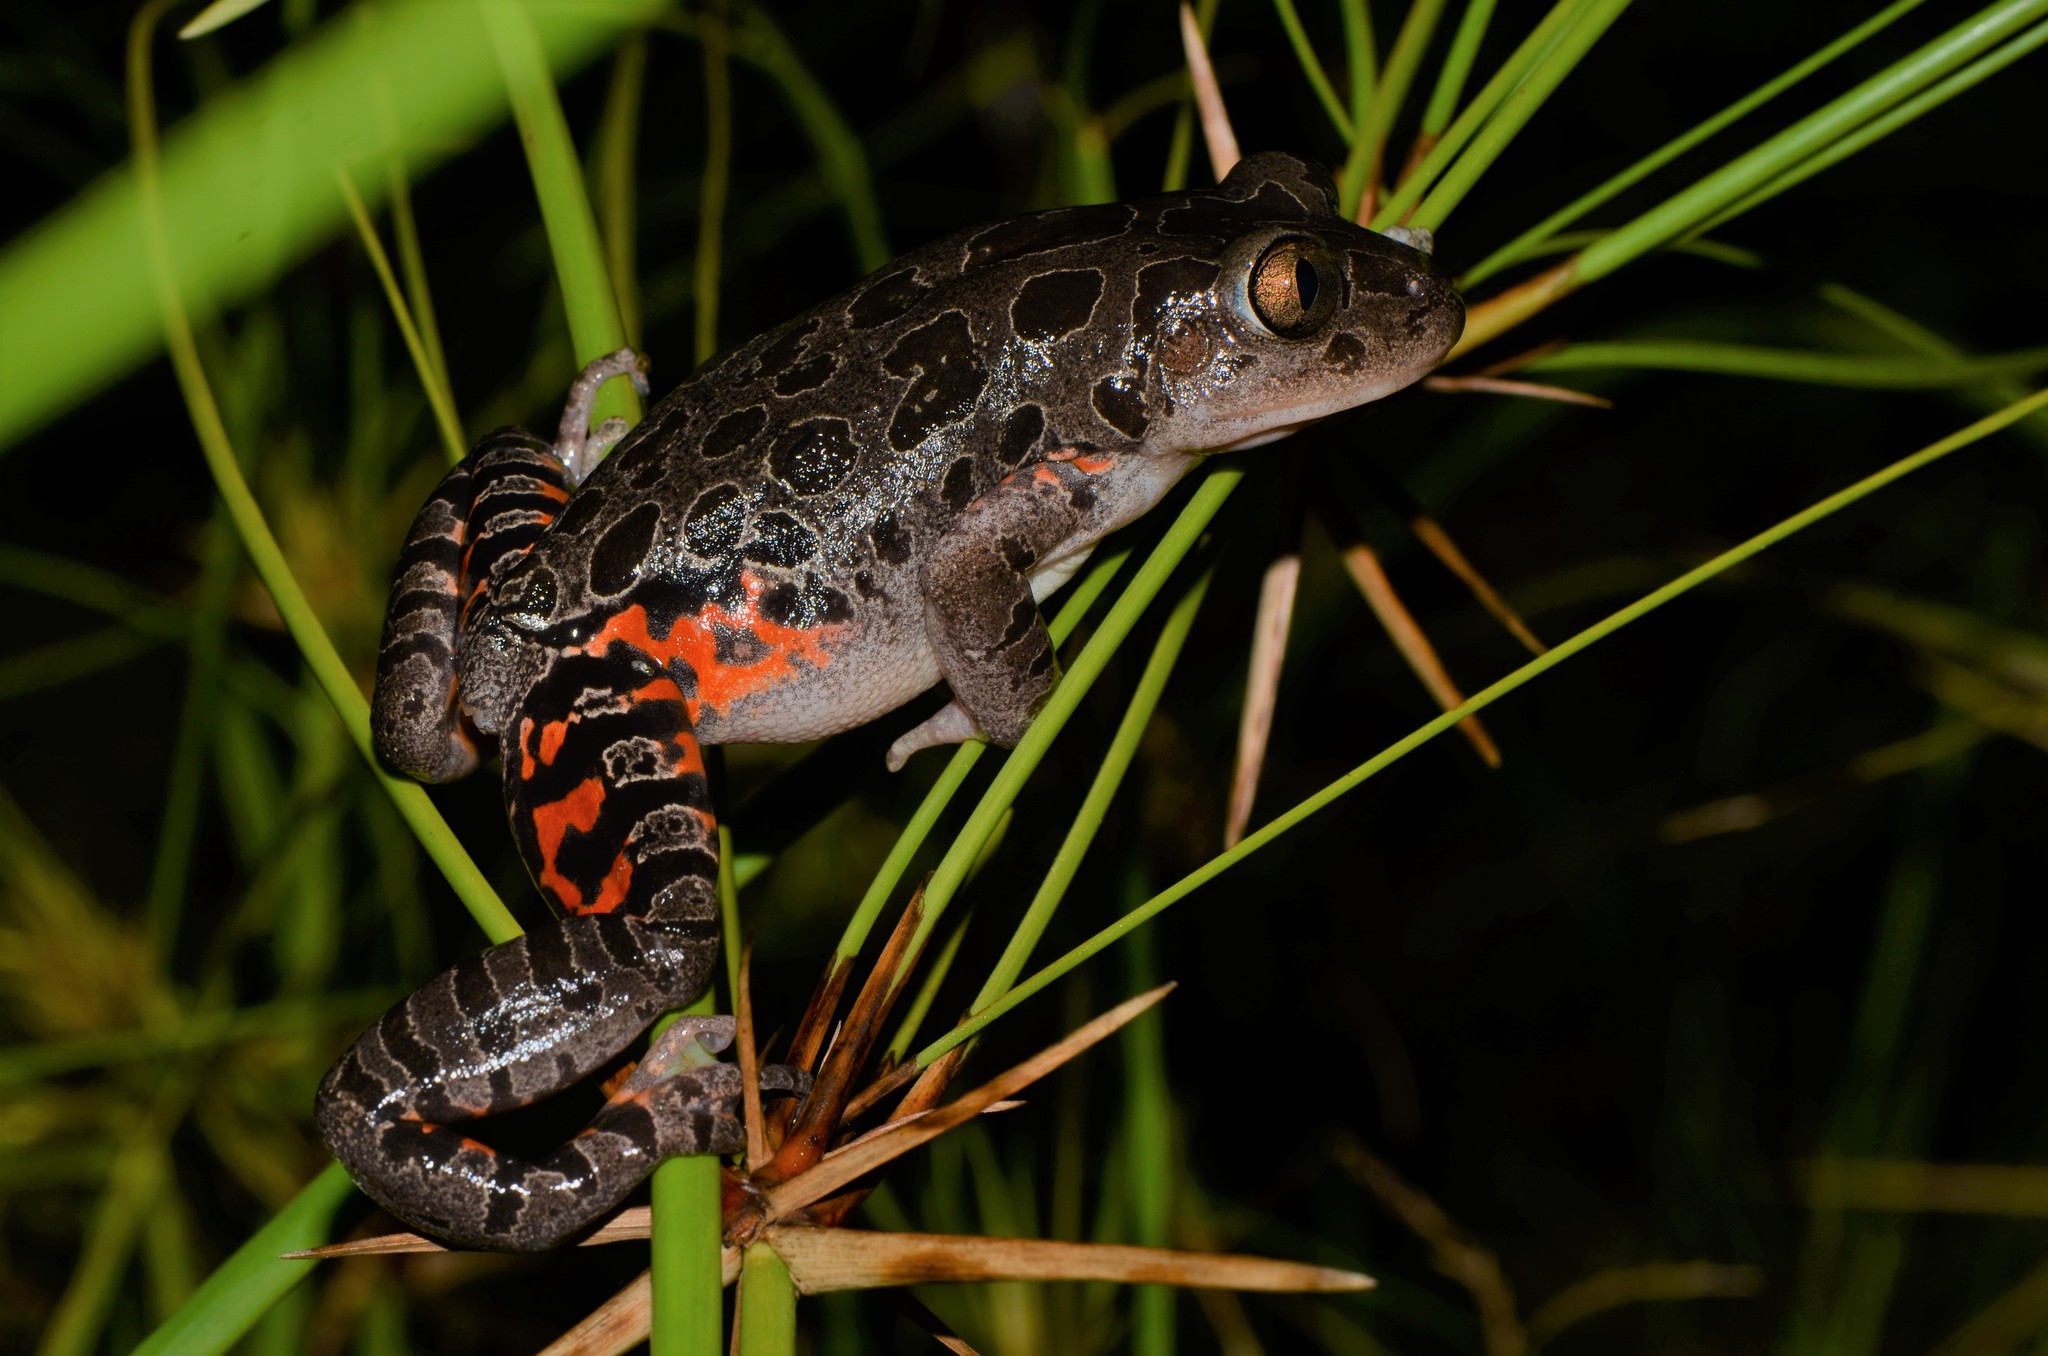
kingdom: Animalia
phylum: Chordata
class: Amphibia
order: Anura
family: Hyperoliidae
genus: Phlyctimantis
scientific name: Phlyctimantis maculatus
